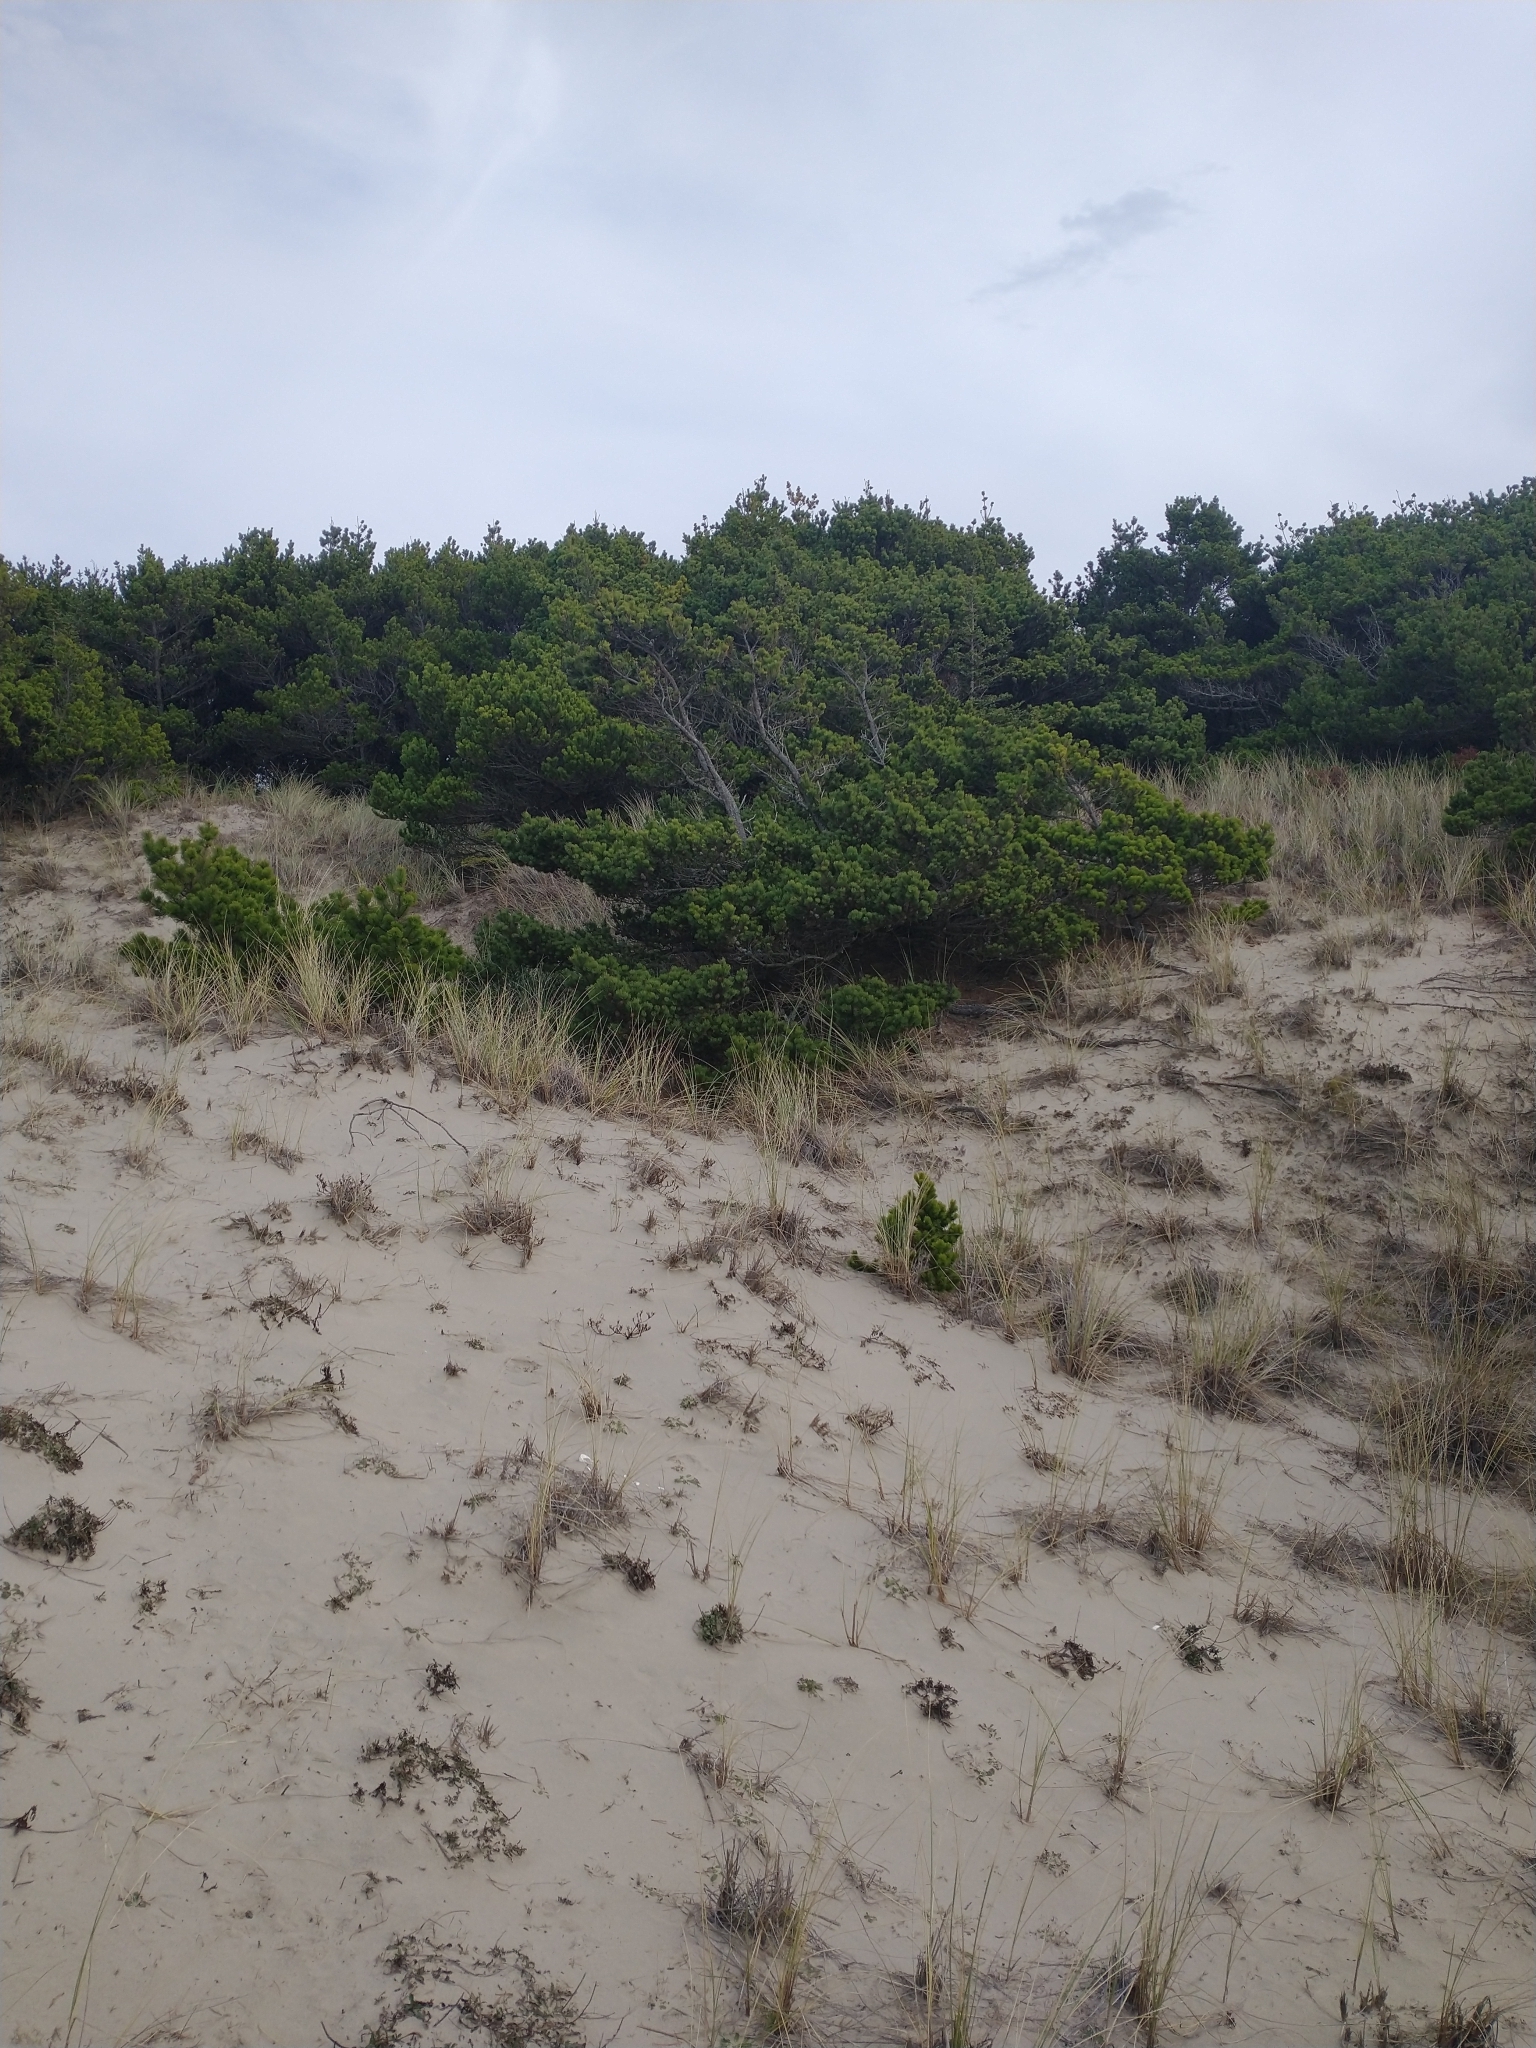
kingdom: Plantae
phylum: Tracheophyta
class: Pinopsida
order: Pinales
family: Pinaceae
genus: Pinus
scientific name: Pinus contorta
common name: Lodgepole pine
